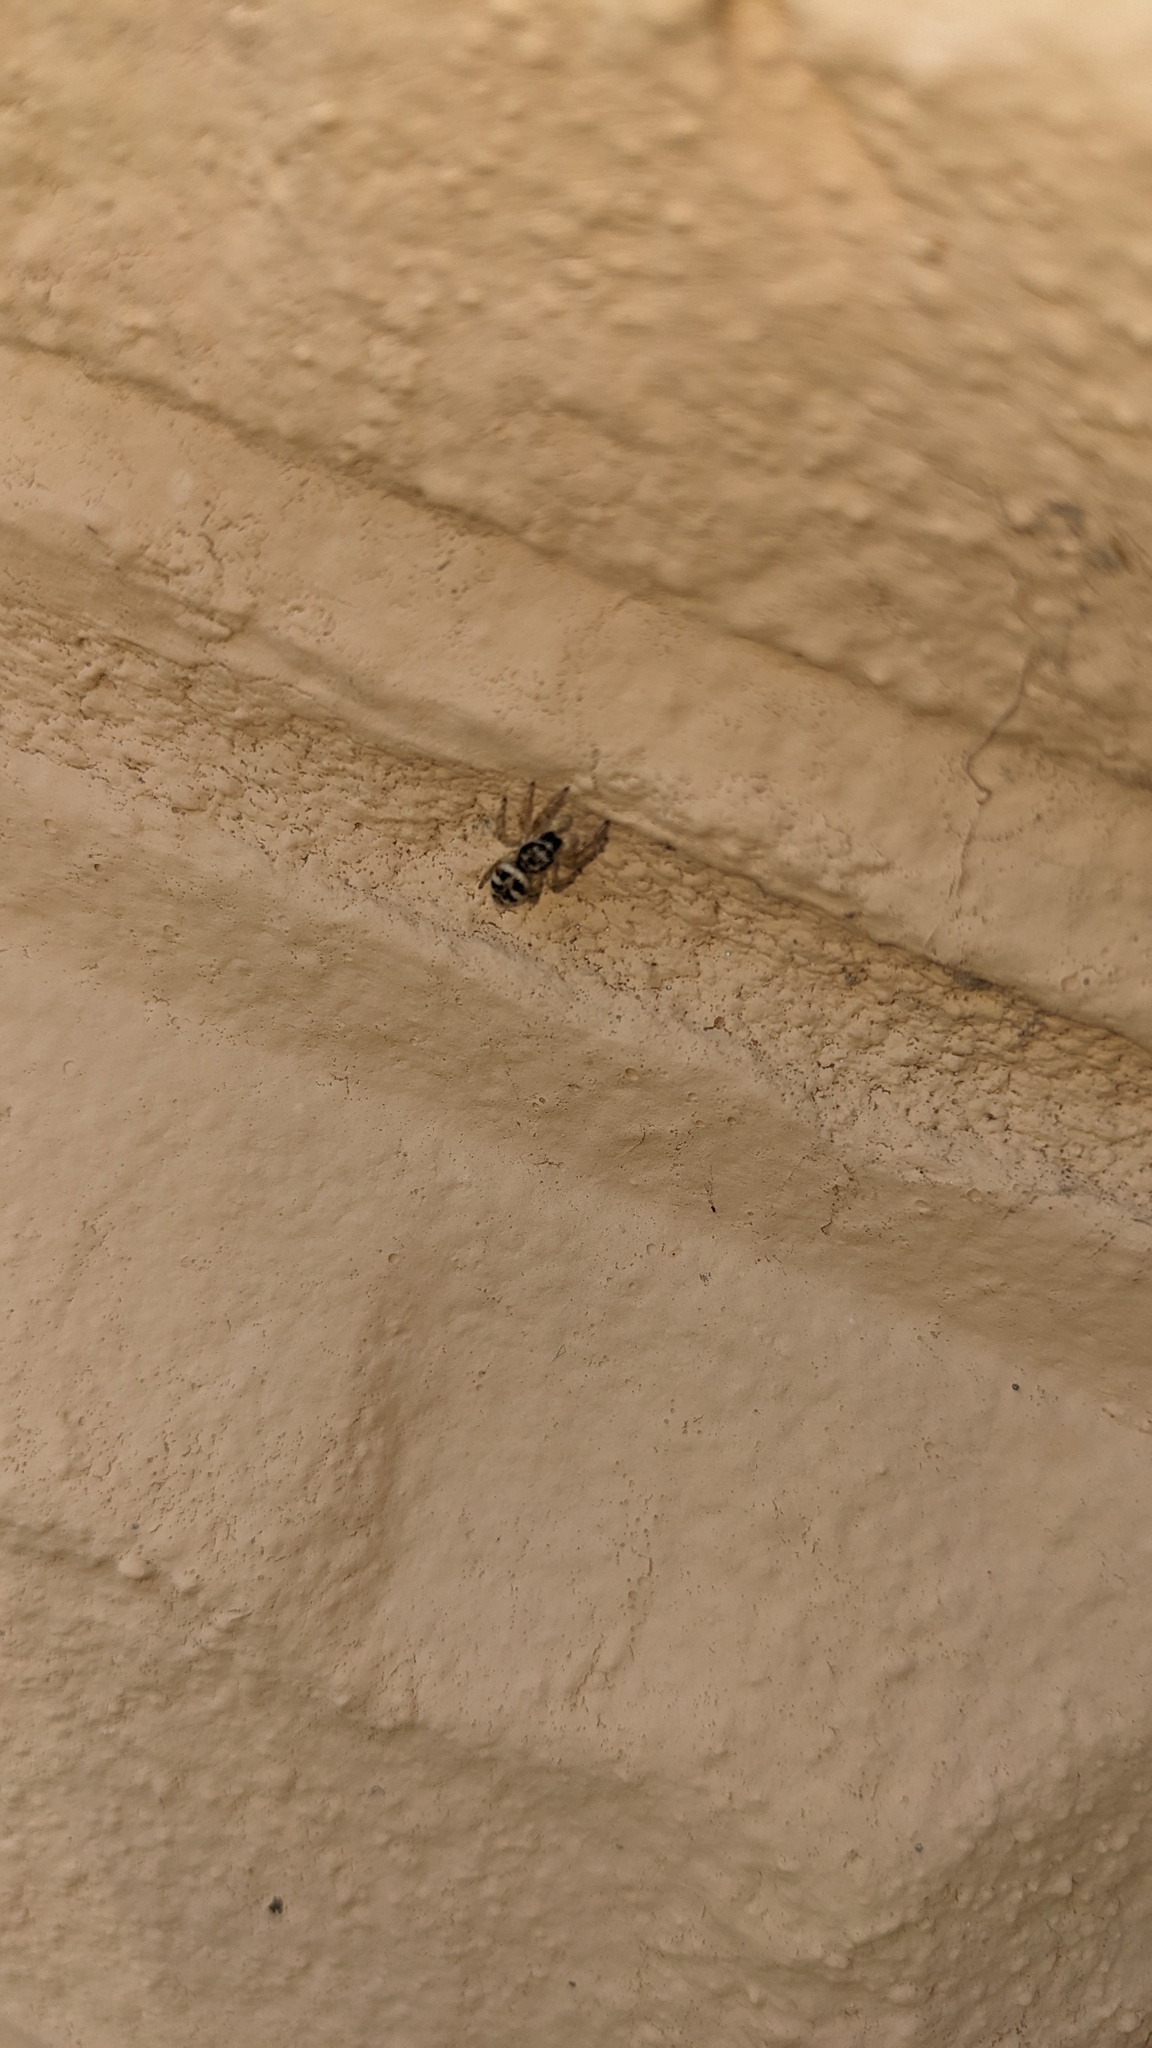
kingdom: Animalia
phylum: Arthropoda
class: Arachnida
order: Araneae
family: Salticidae
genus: Salticus
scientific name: Salticus scenicus
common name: Zebra jumper
